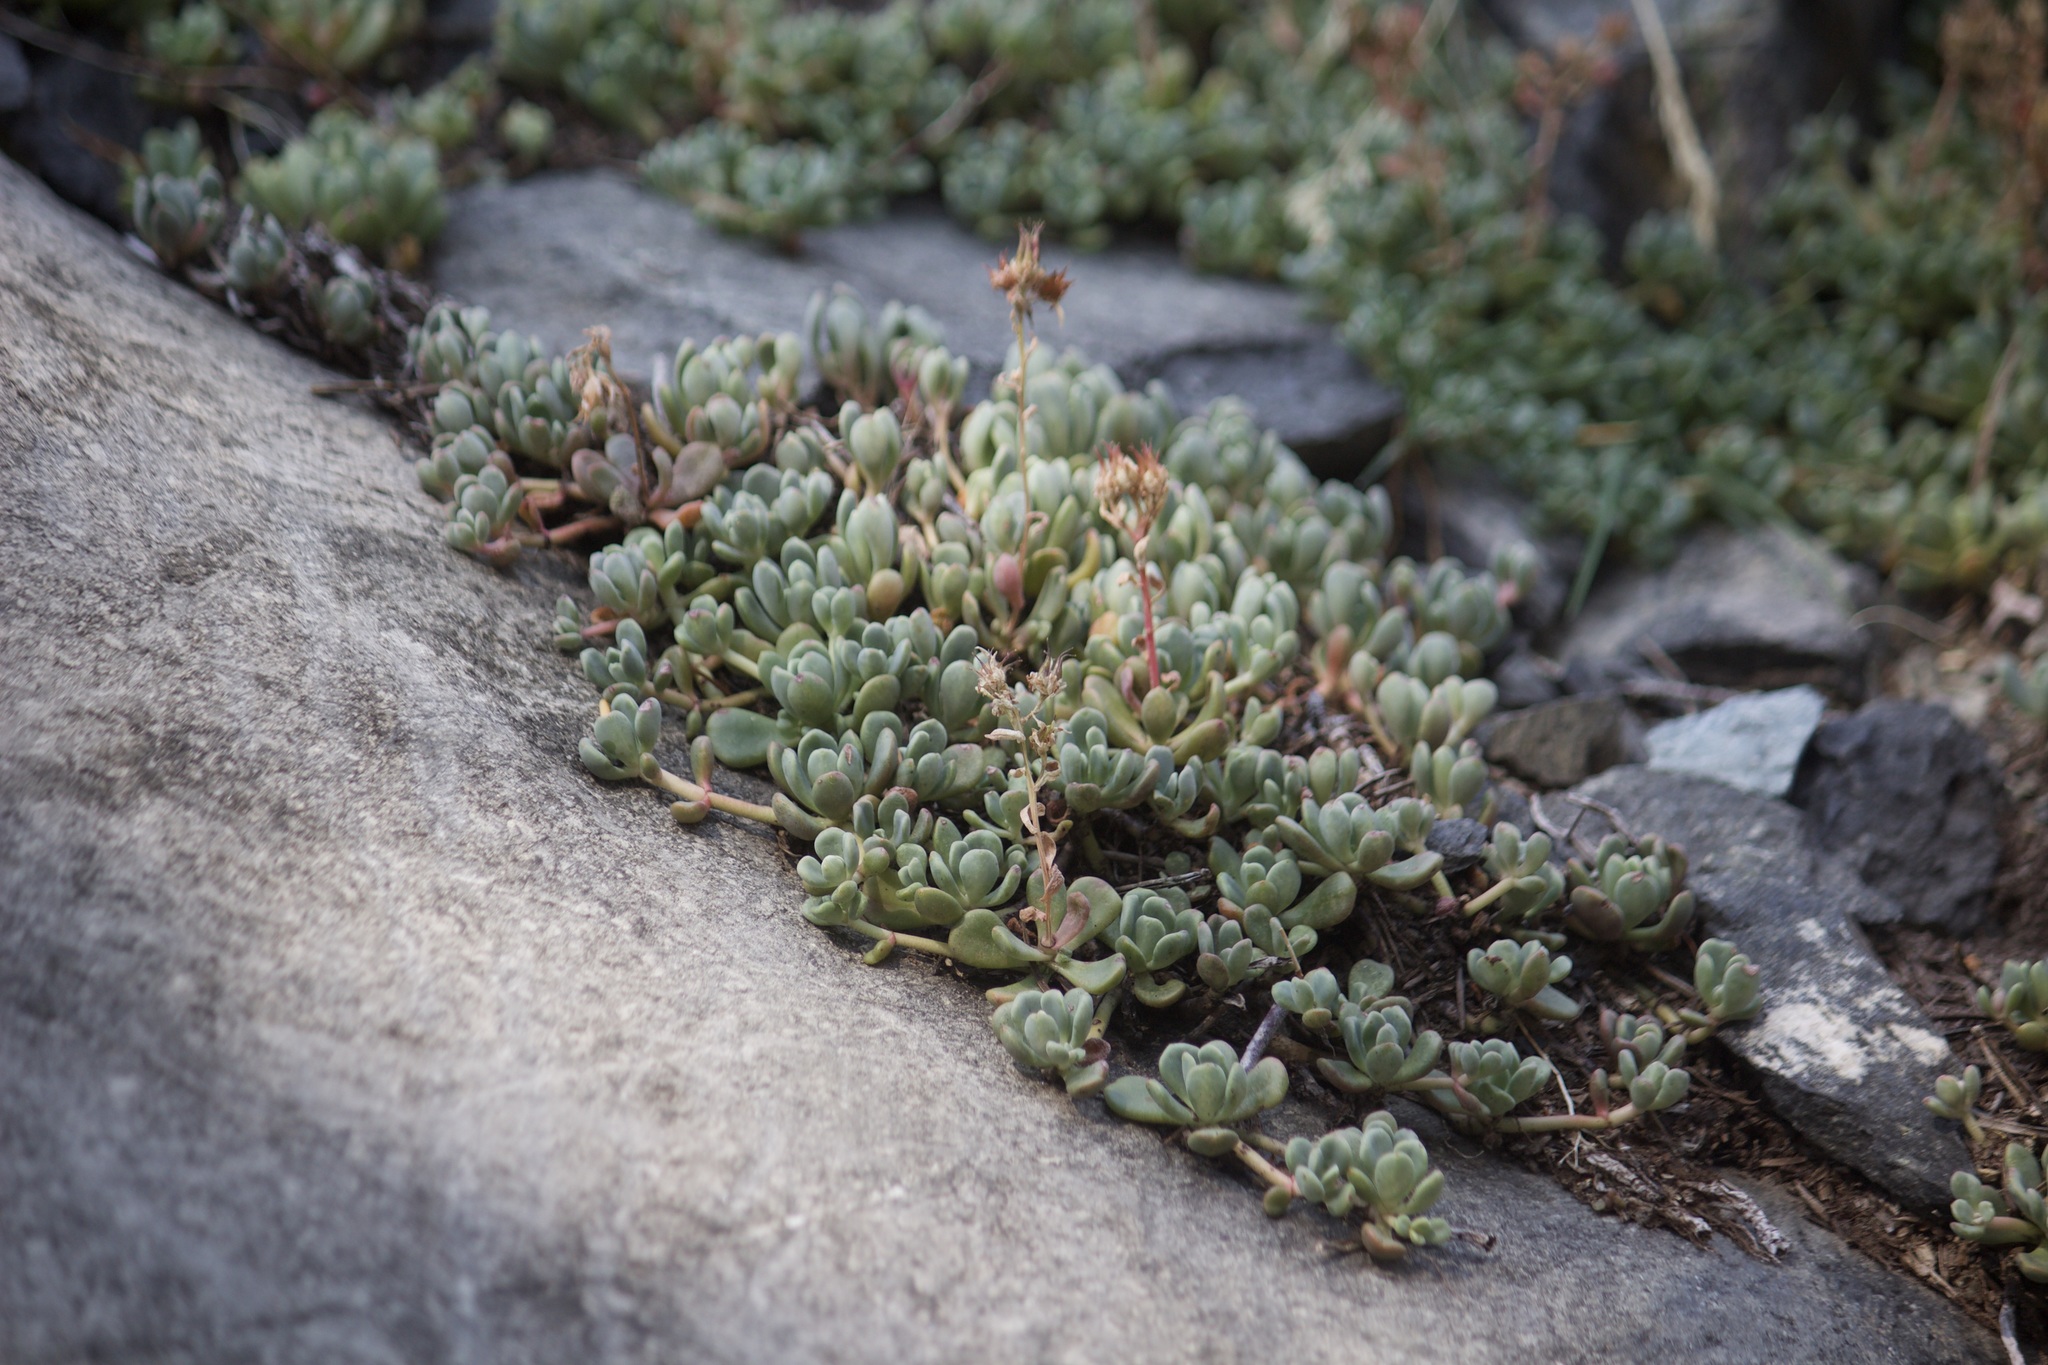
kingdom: Plantae
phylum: Tracheophyta
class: Magnoliopsida
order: Saxifragales
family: Crassulaceae
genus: Sedum
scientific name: Sedum obtusatum
